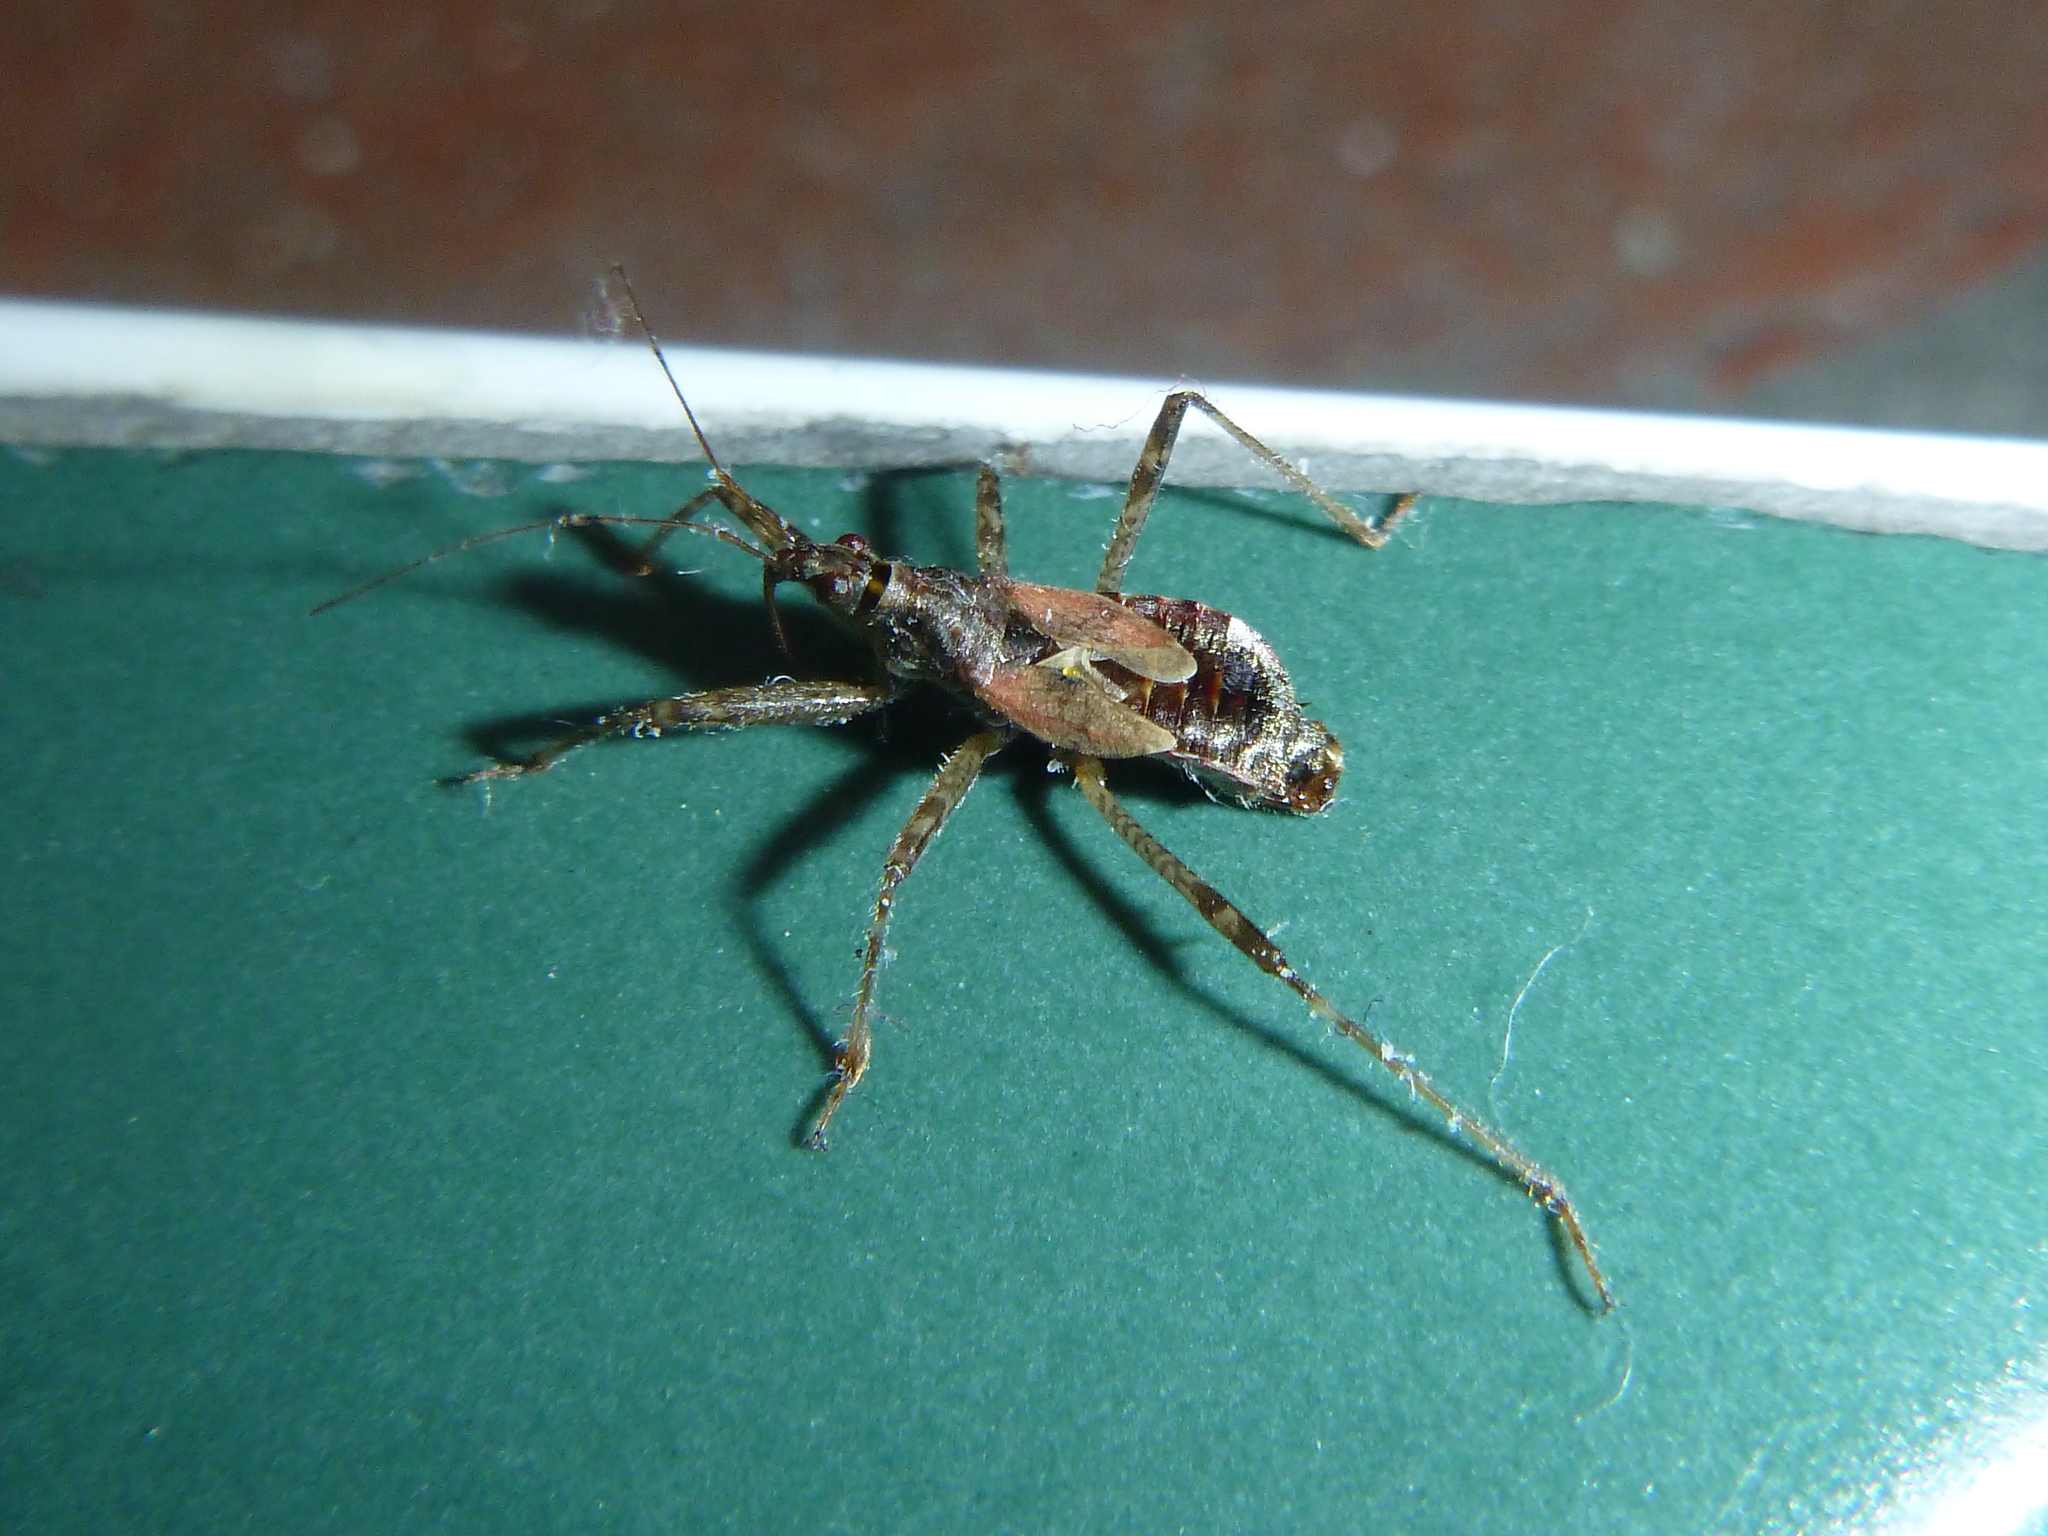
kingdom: Animalia
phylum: Arthropoda
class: Insecta
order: Hemiptera
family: Nabidae
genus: Himacerus
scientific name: Himacerus apterus
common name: Tree damsel bug
